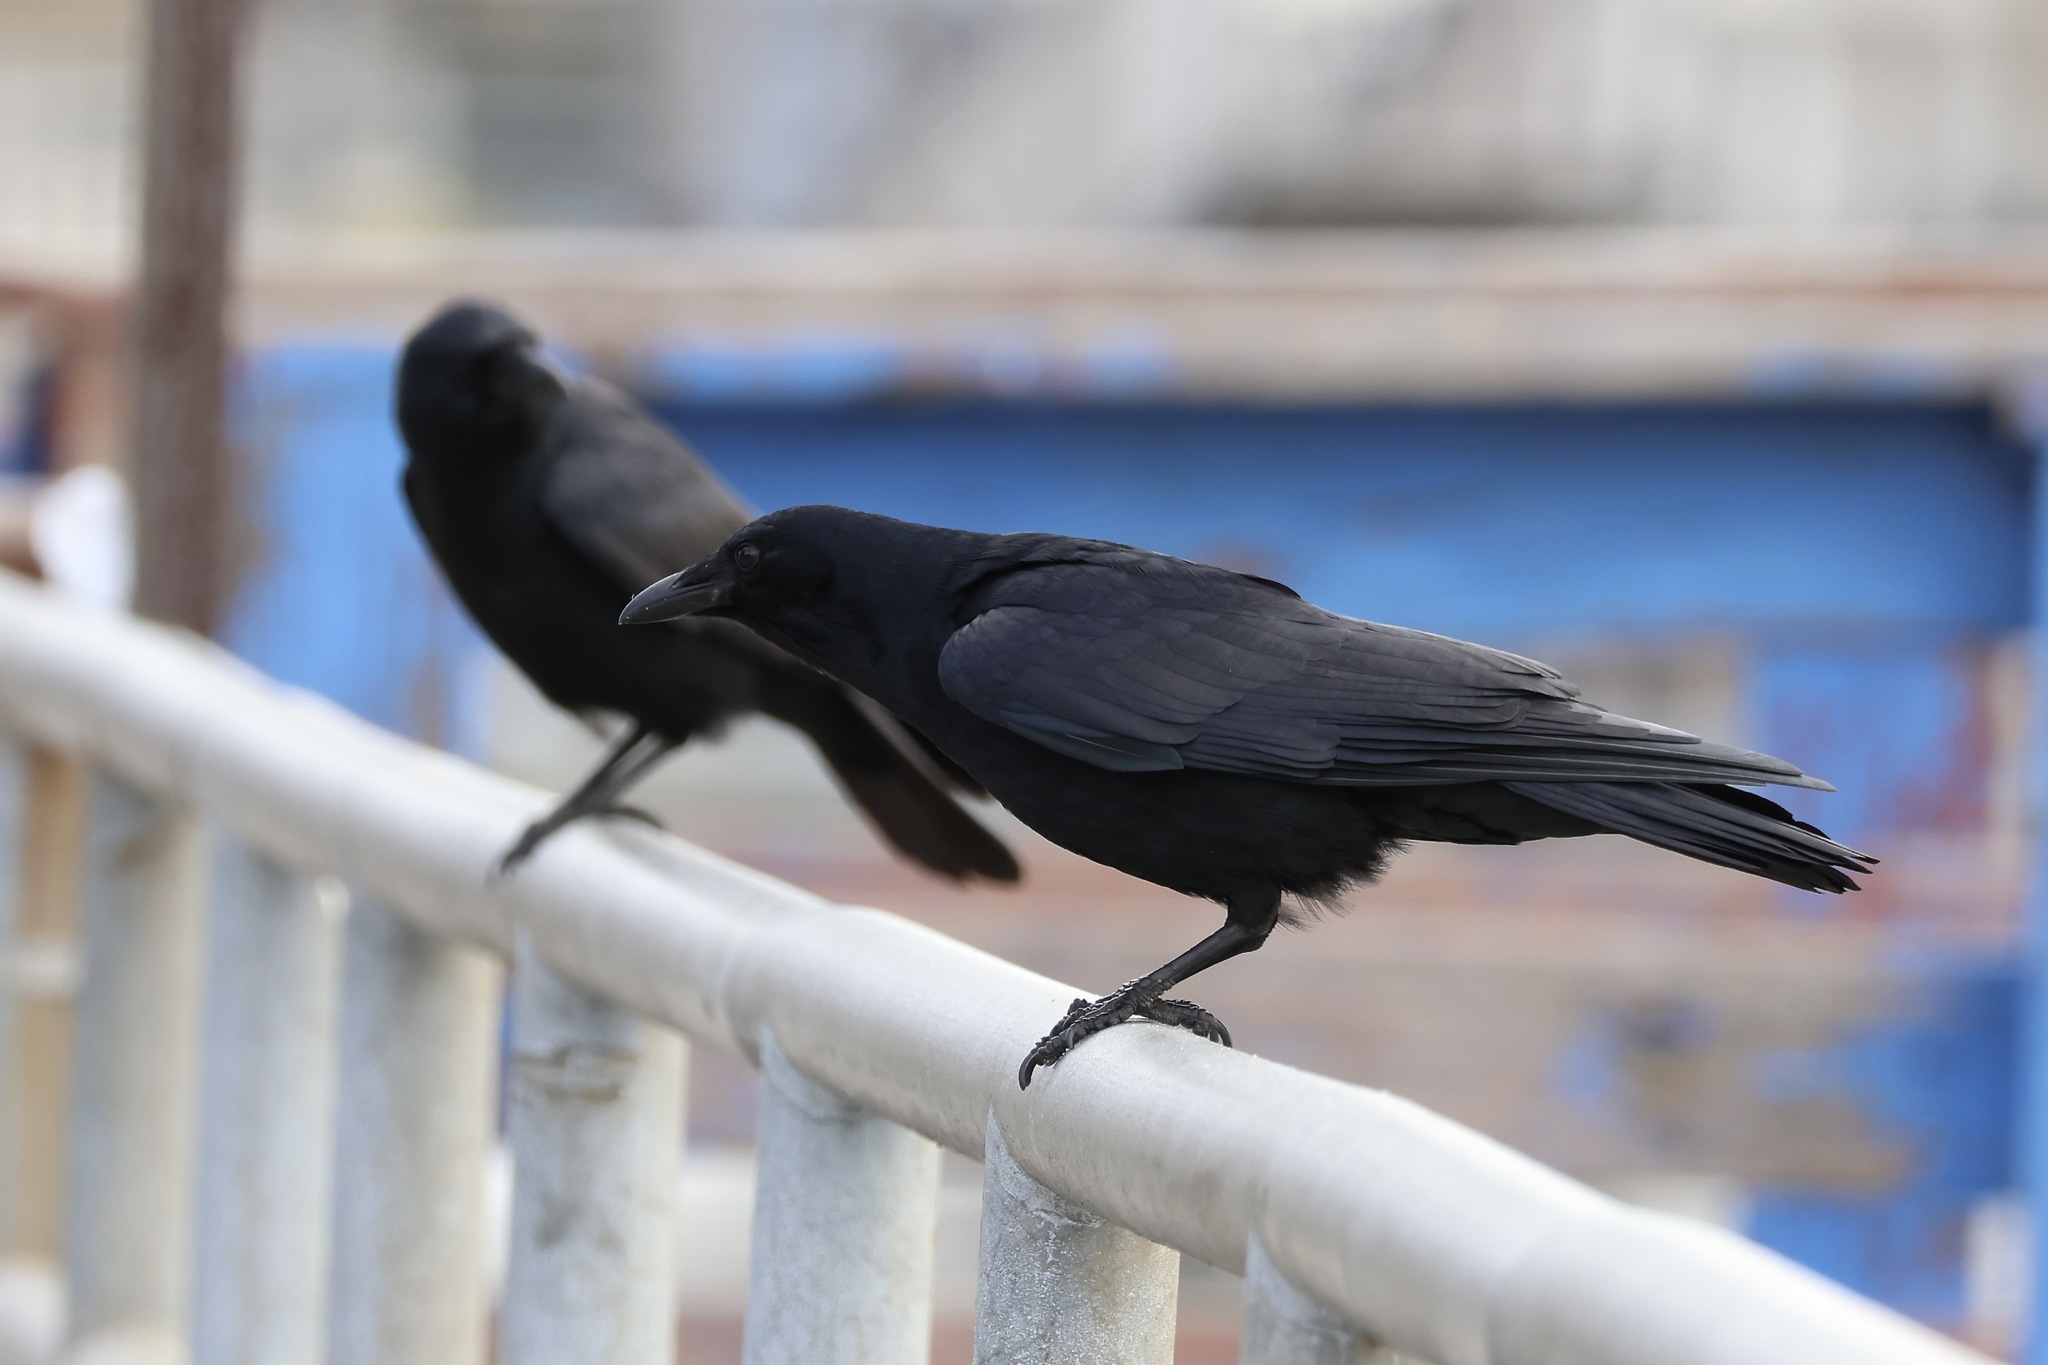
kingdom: Animalia
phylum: Chordata
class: Aves
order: Passeriformes
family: Corvidae
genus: Corvus
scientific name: Corvus ossifragus
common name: Fish crow
